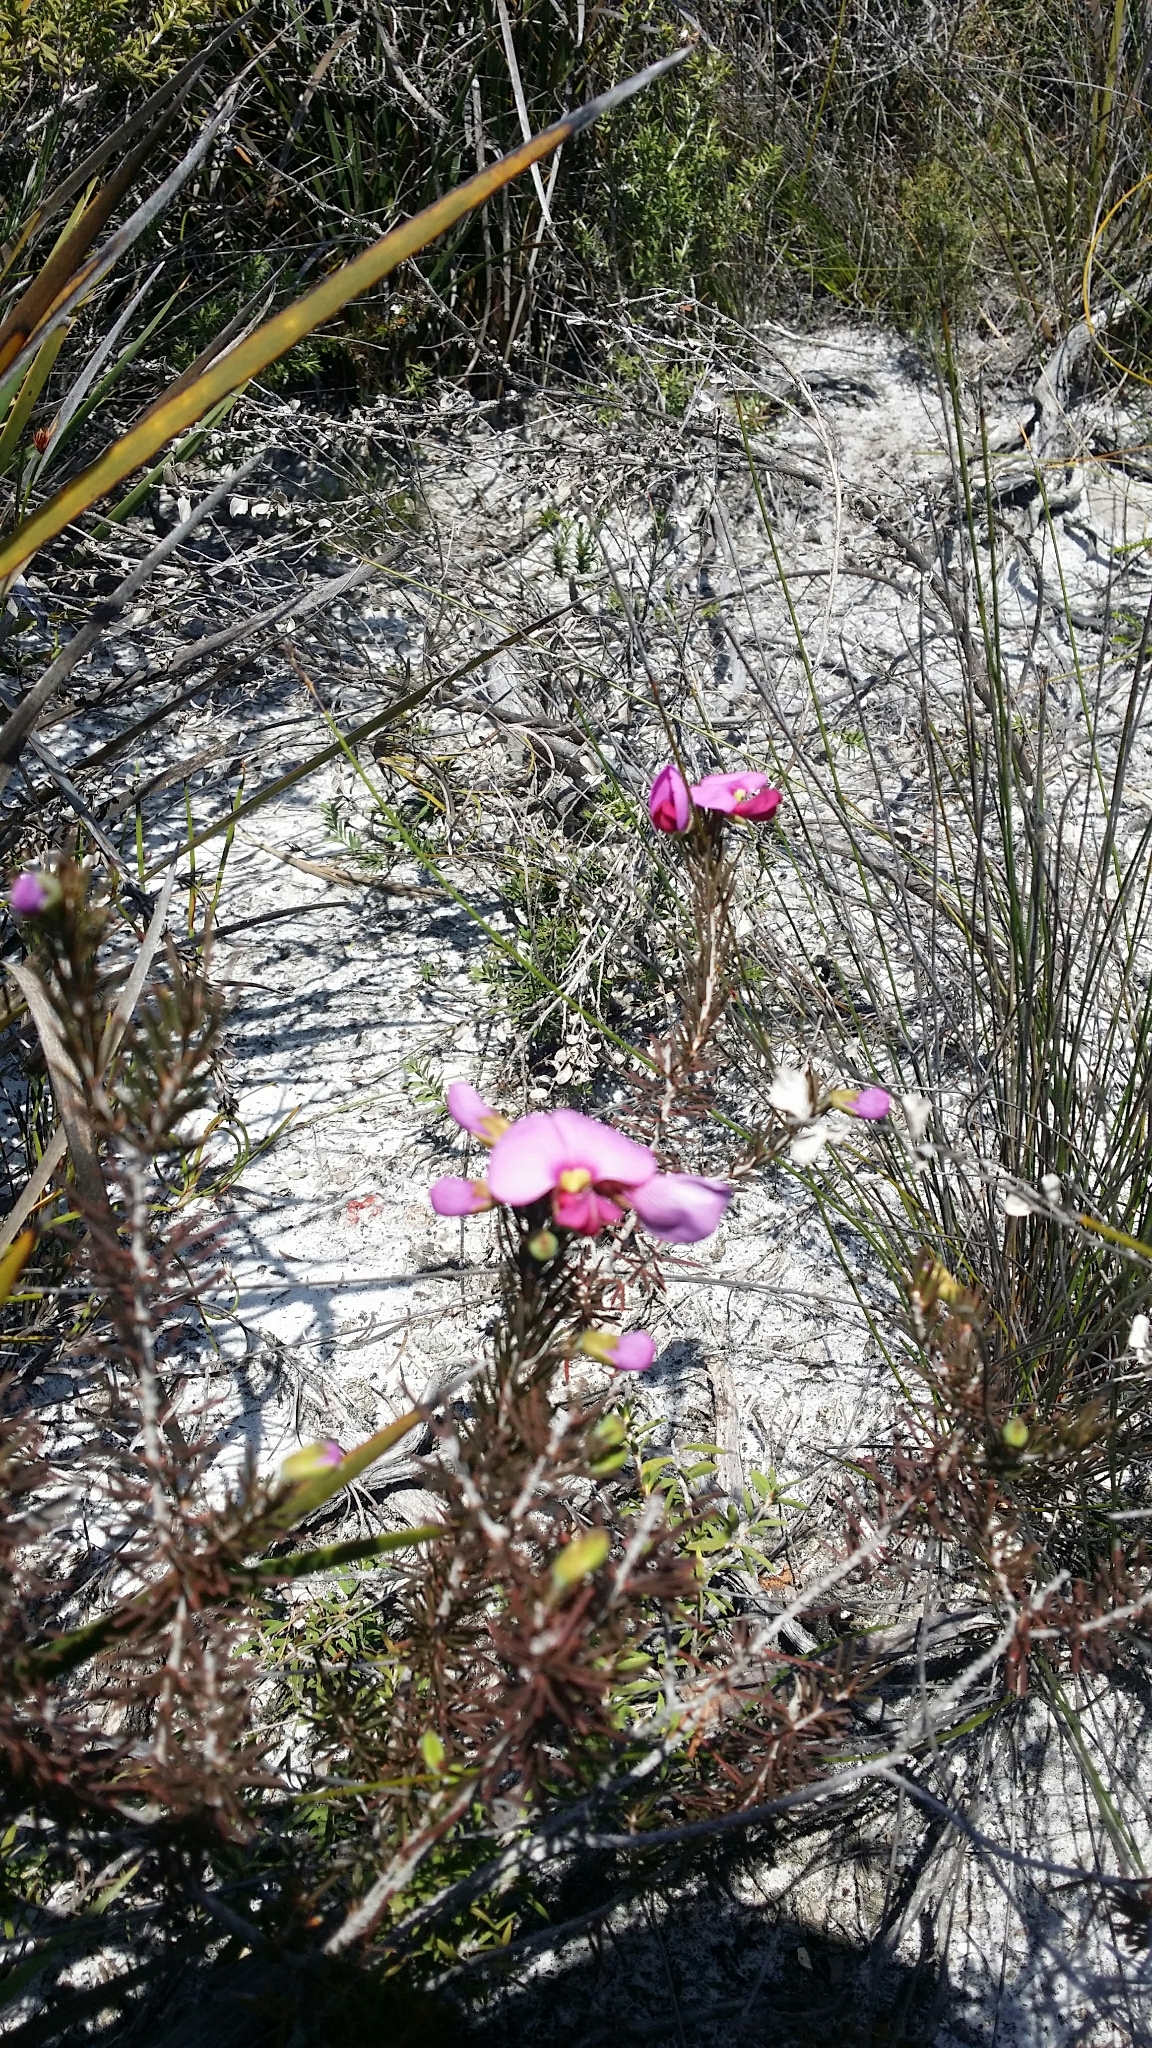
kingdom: Plantae
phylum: Tracheophyta
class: Magnoliopsida
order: Fabales
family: Fabaceae
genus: Gompholobium
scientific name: Gompholobium scabrum
